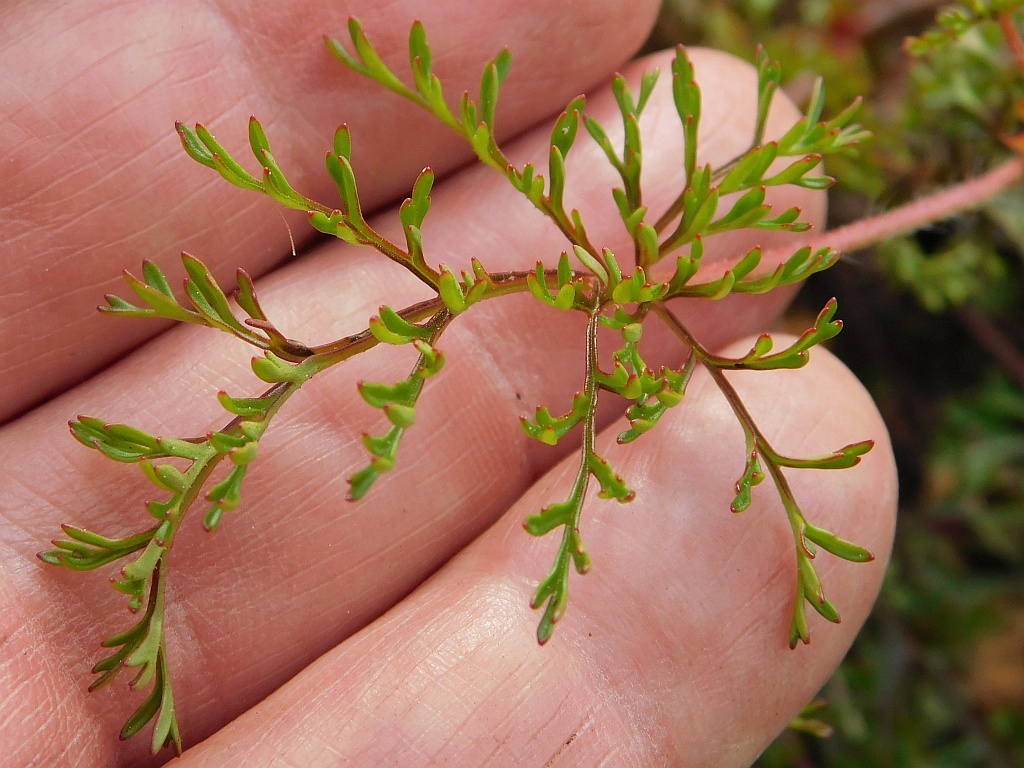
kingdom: Plantae
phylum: Tracheophyta
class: Magnoliopsida
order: Geraniales
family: Geraniaceae
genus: Pelargonium
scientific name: Pelargonium myrrhifolium
